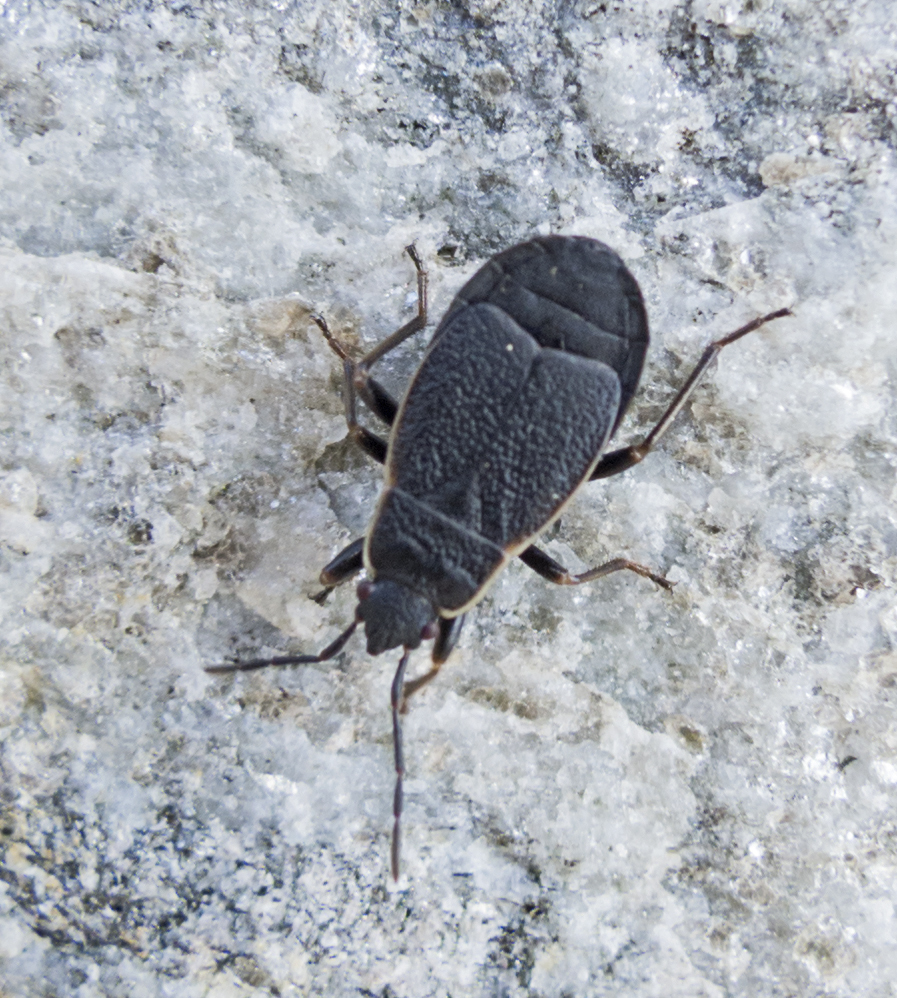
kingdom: Animalia
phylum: Arthropoda
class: Insecta
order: Hemiptera
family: Pyrrhocoridae
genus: Pyrrhocoris
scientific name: Pyrrhocoris marginatus
